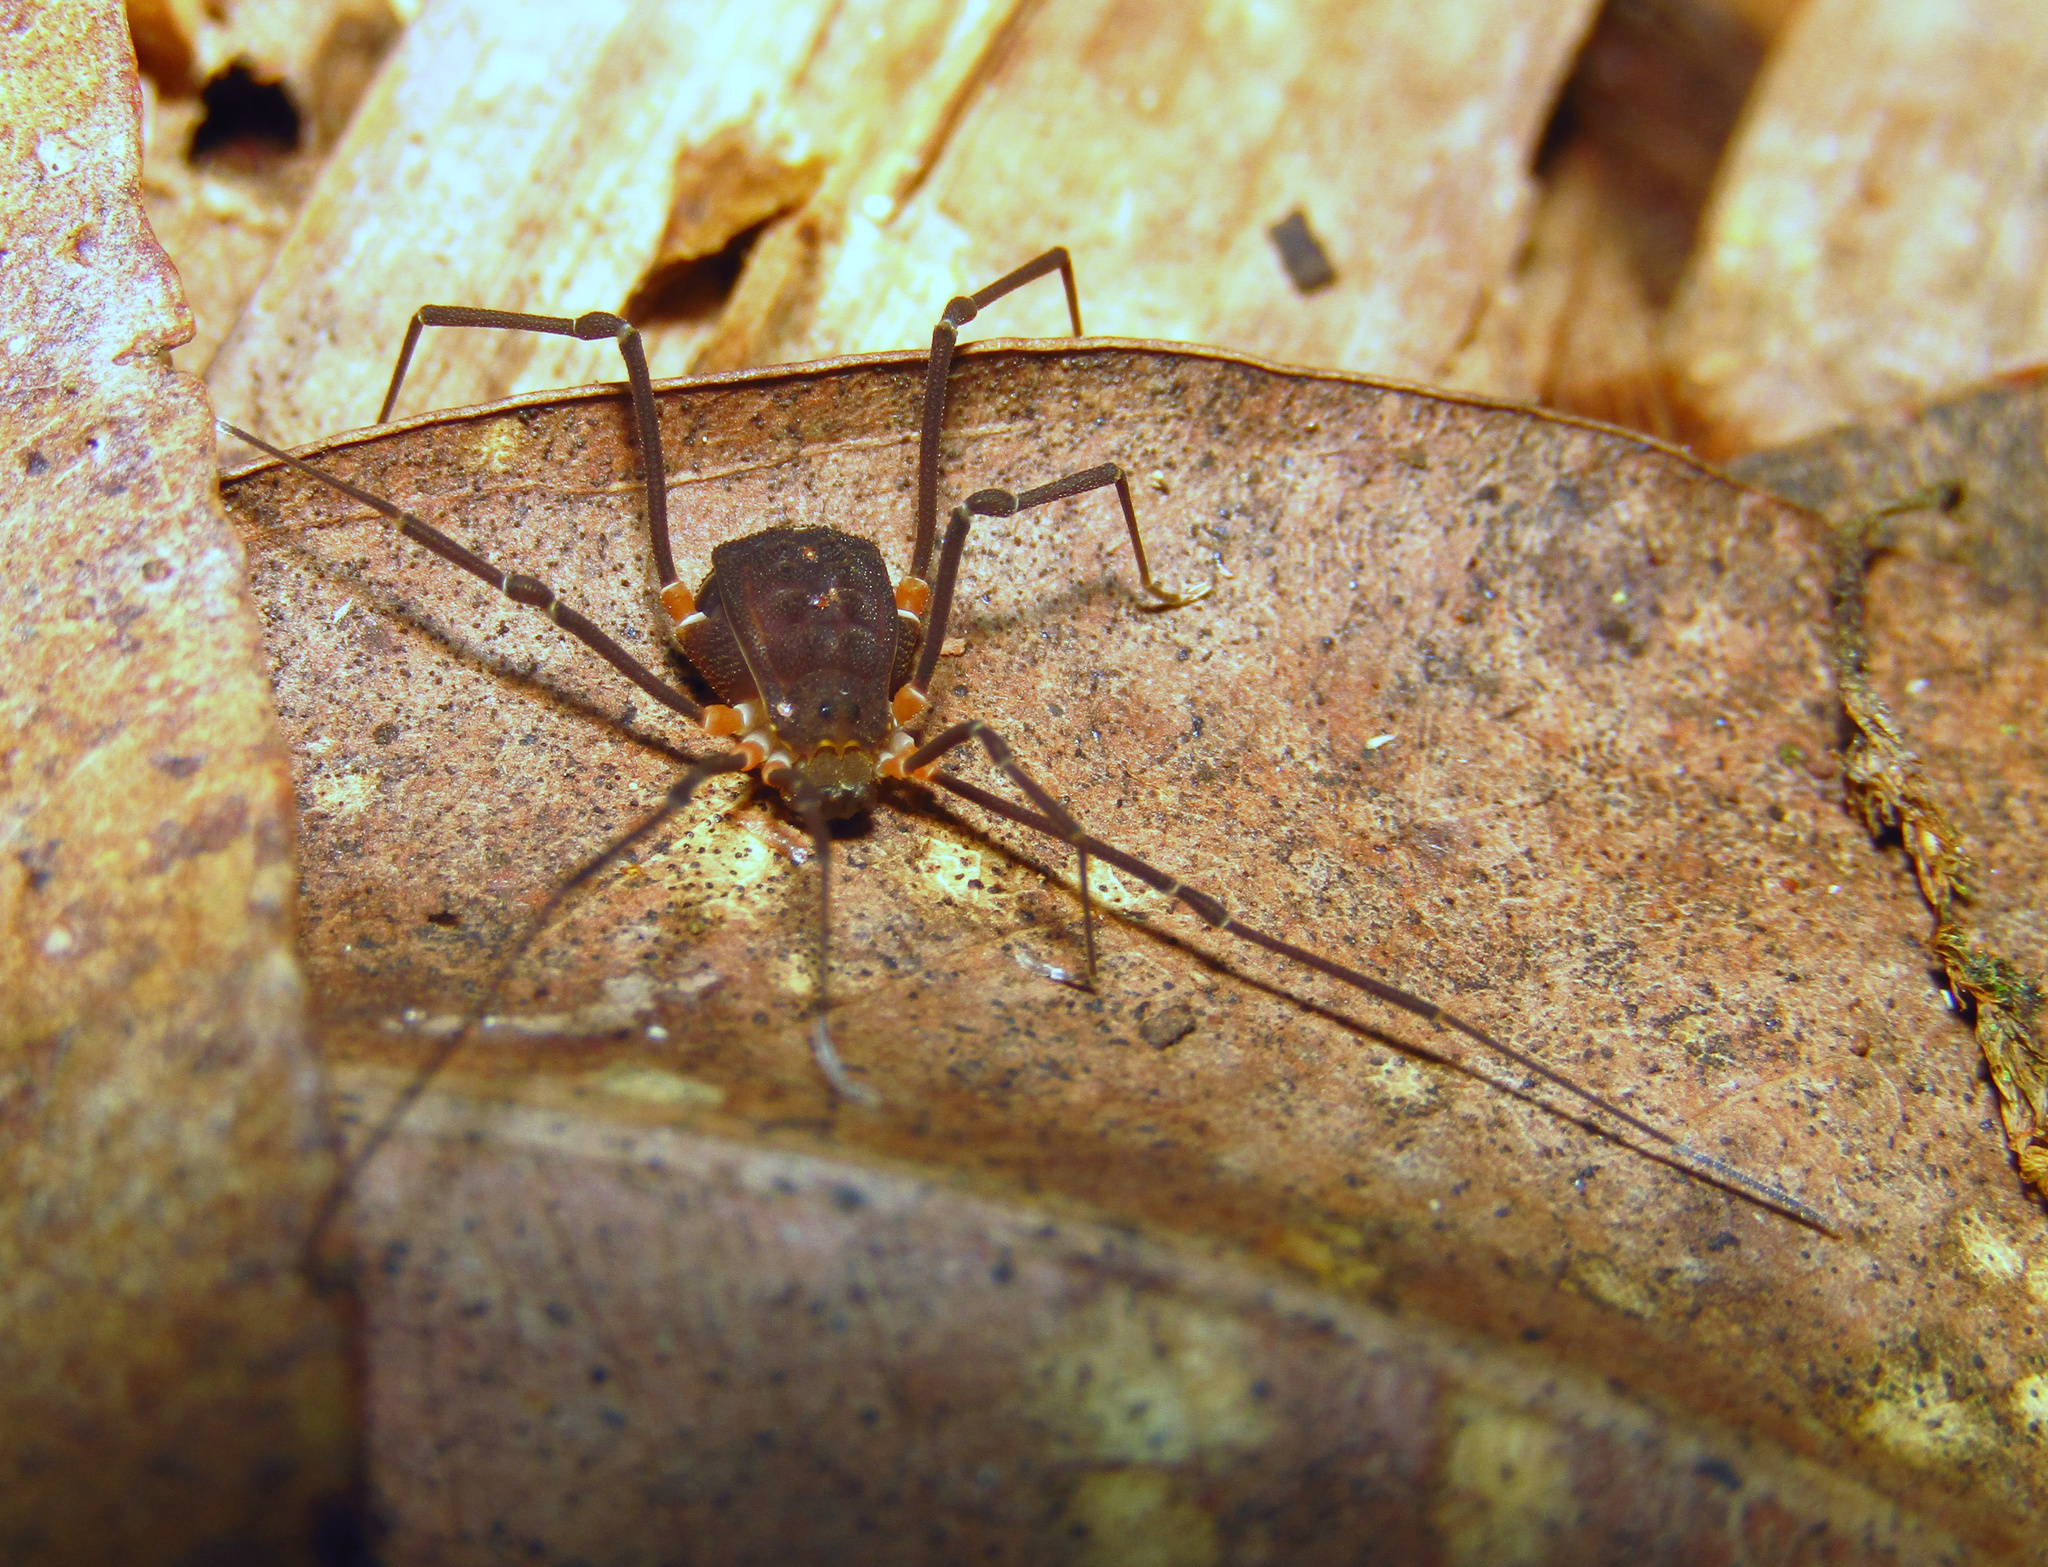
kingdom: Animalia
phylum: Arthropoda
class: Arachnida
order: Opiliones
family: Assamiidae
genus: Octobunus
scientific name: Octobunus singularis
